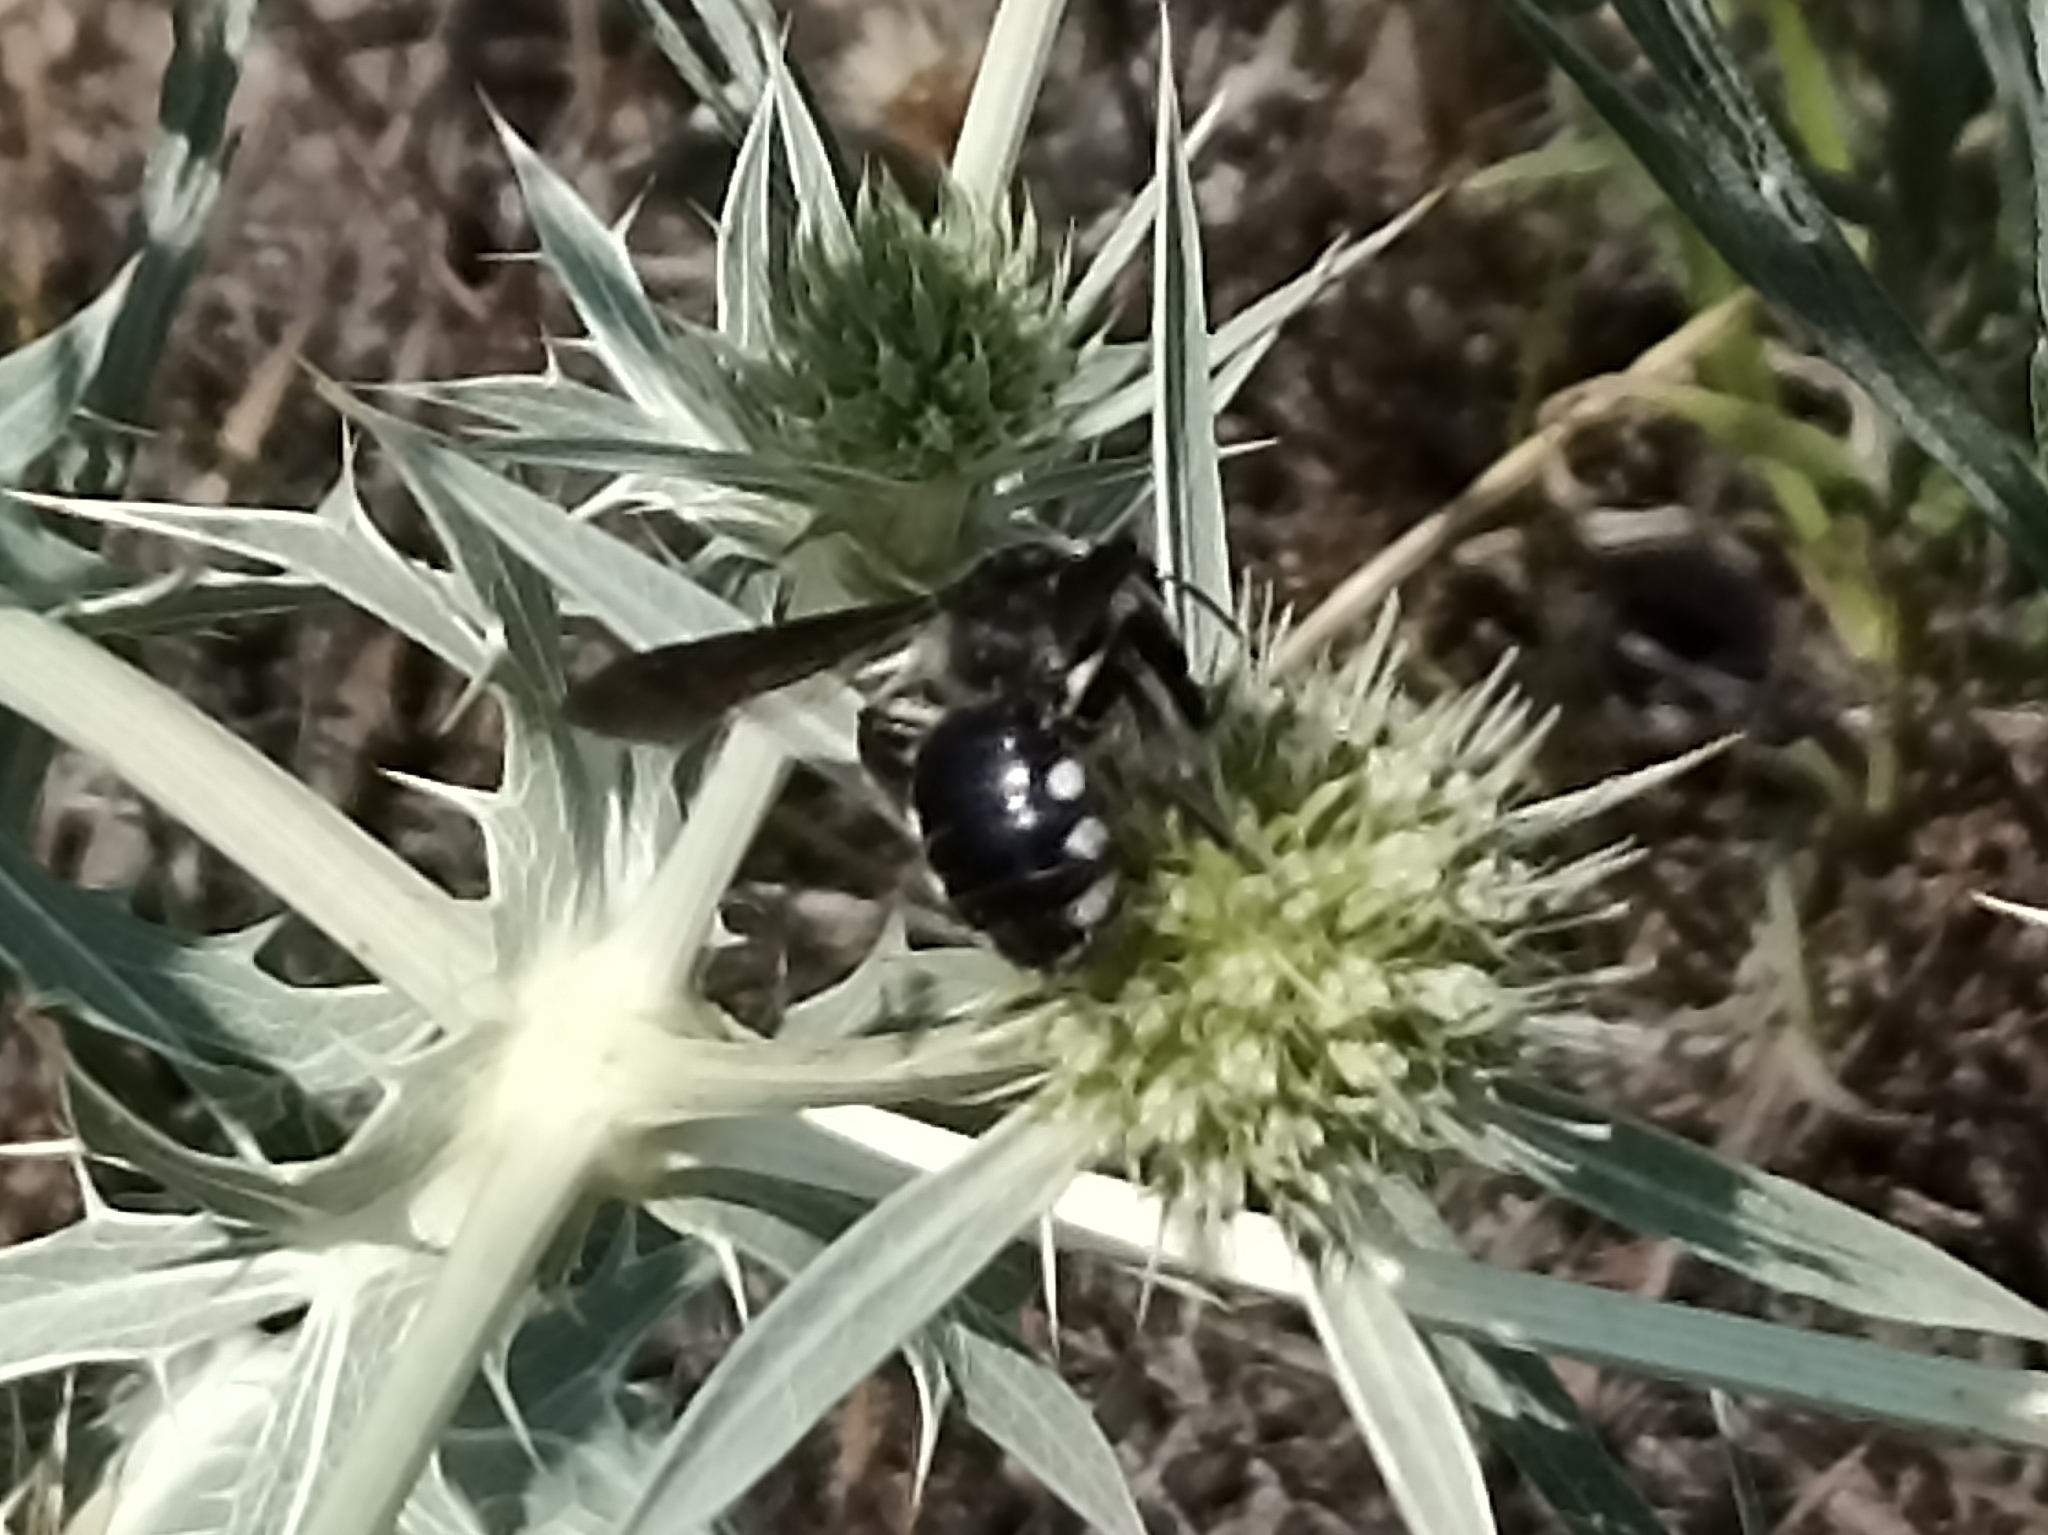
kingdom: Animalia
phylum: Arthropoda
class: Insecta
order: Hymenoptera
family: Andrenidae
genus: Andrena
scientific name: Andrena albopunctata
